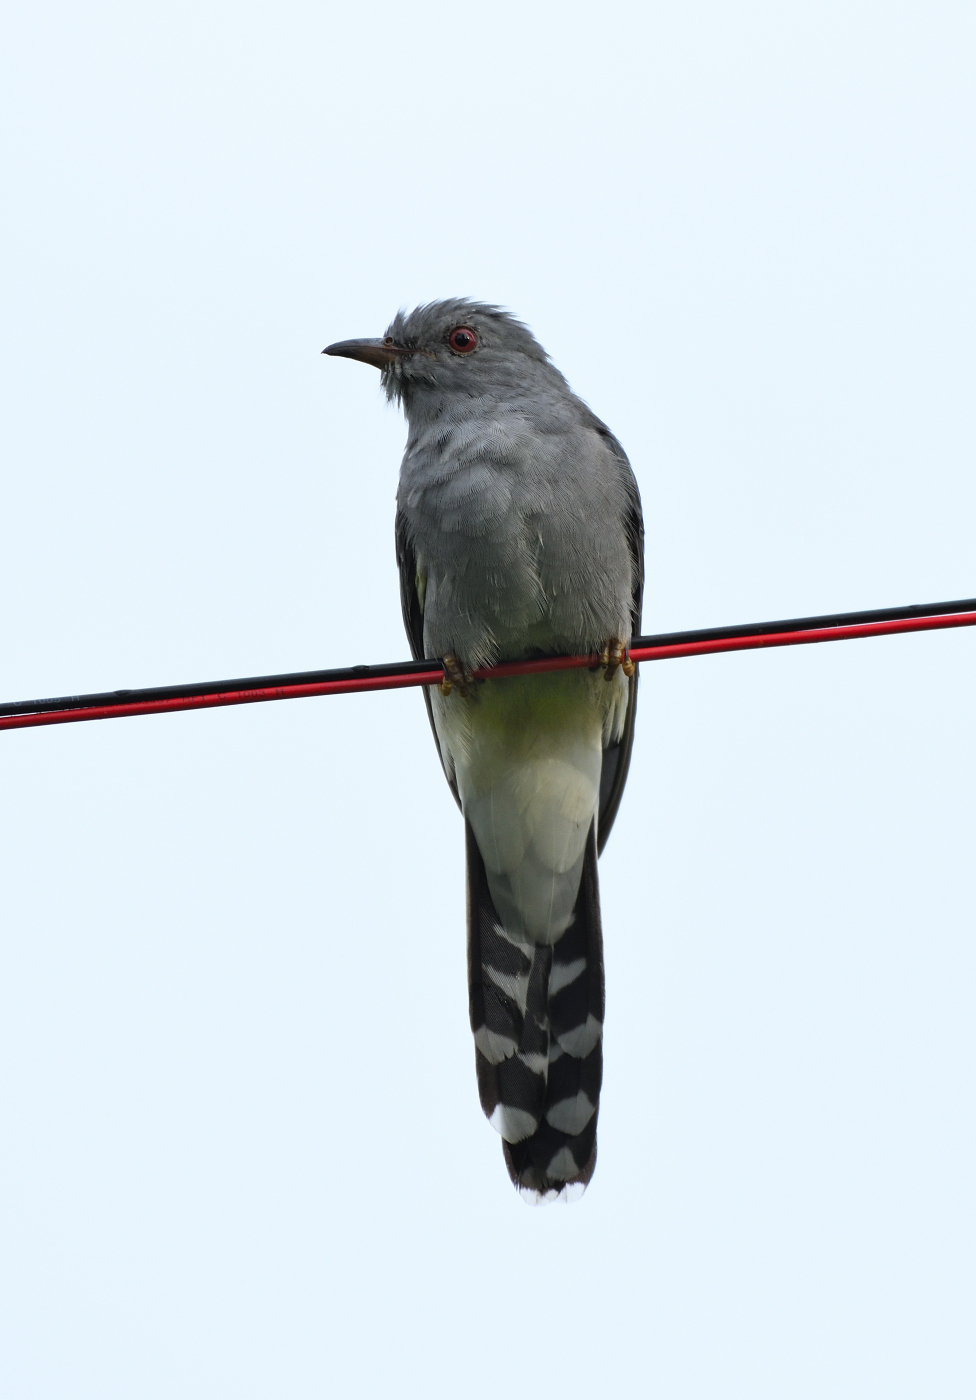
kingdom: Animalia
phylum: Chordata
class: Aves
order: Cuculiformes
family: Cuculidae
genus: Cacomantis
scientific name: Cacomantis passerinus
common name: Grey-bellied cuckoo
